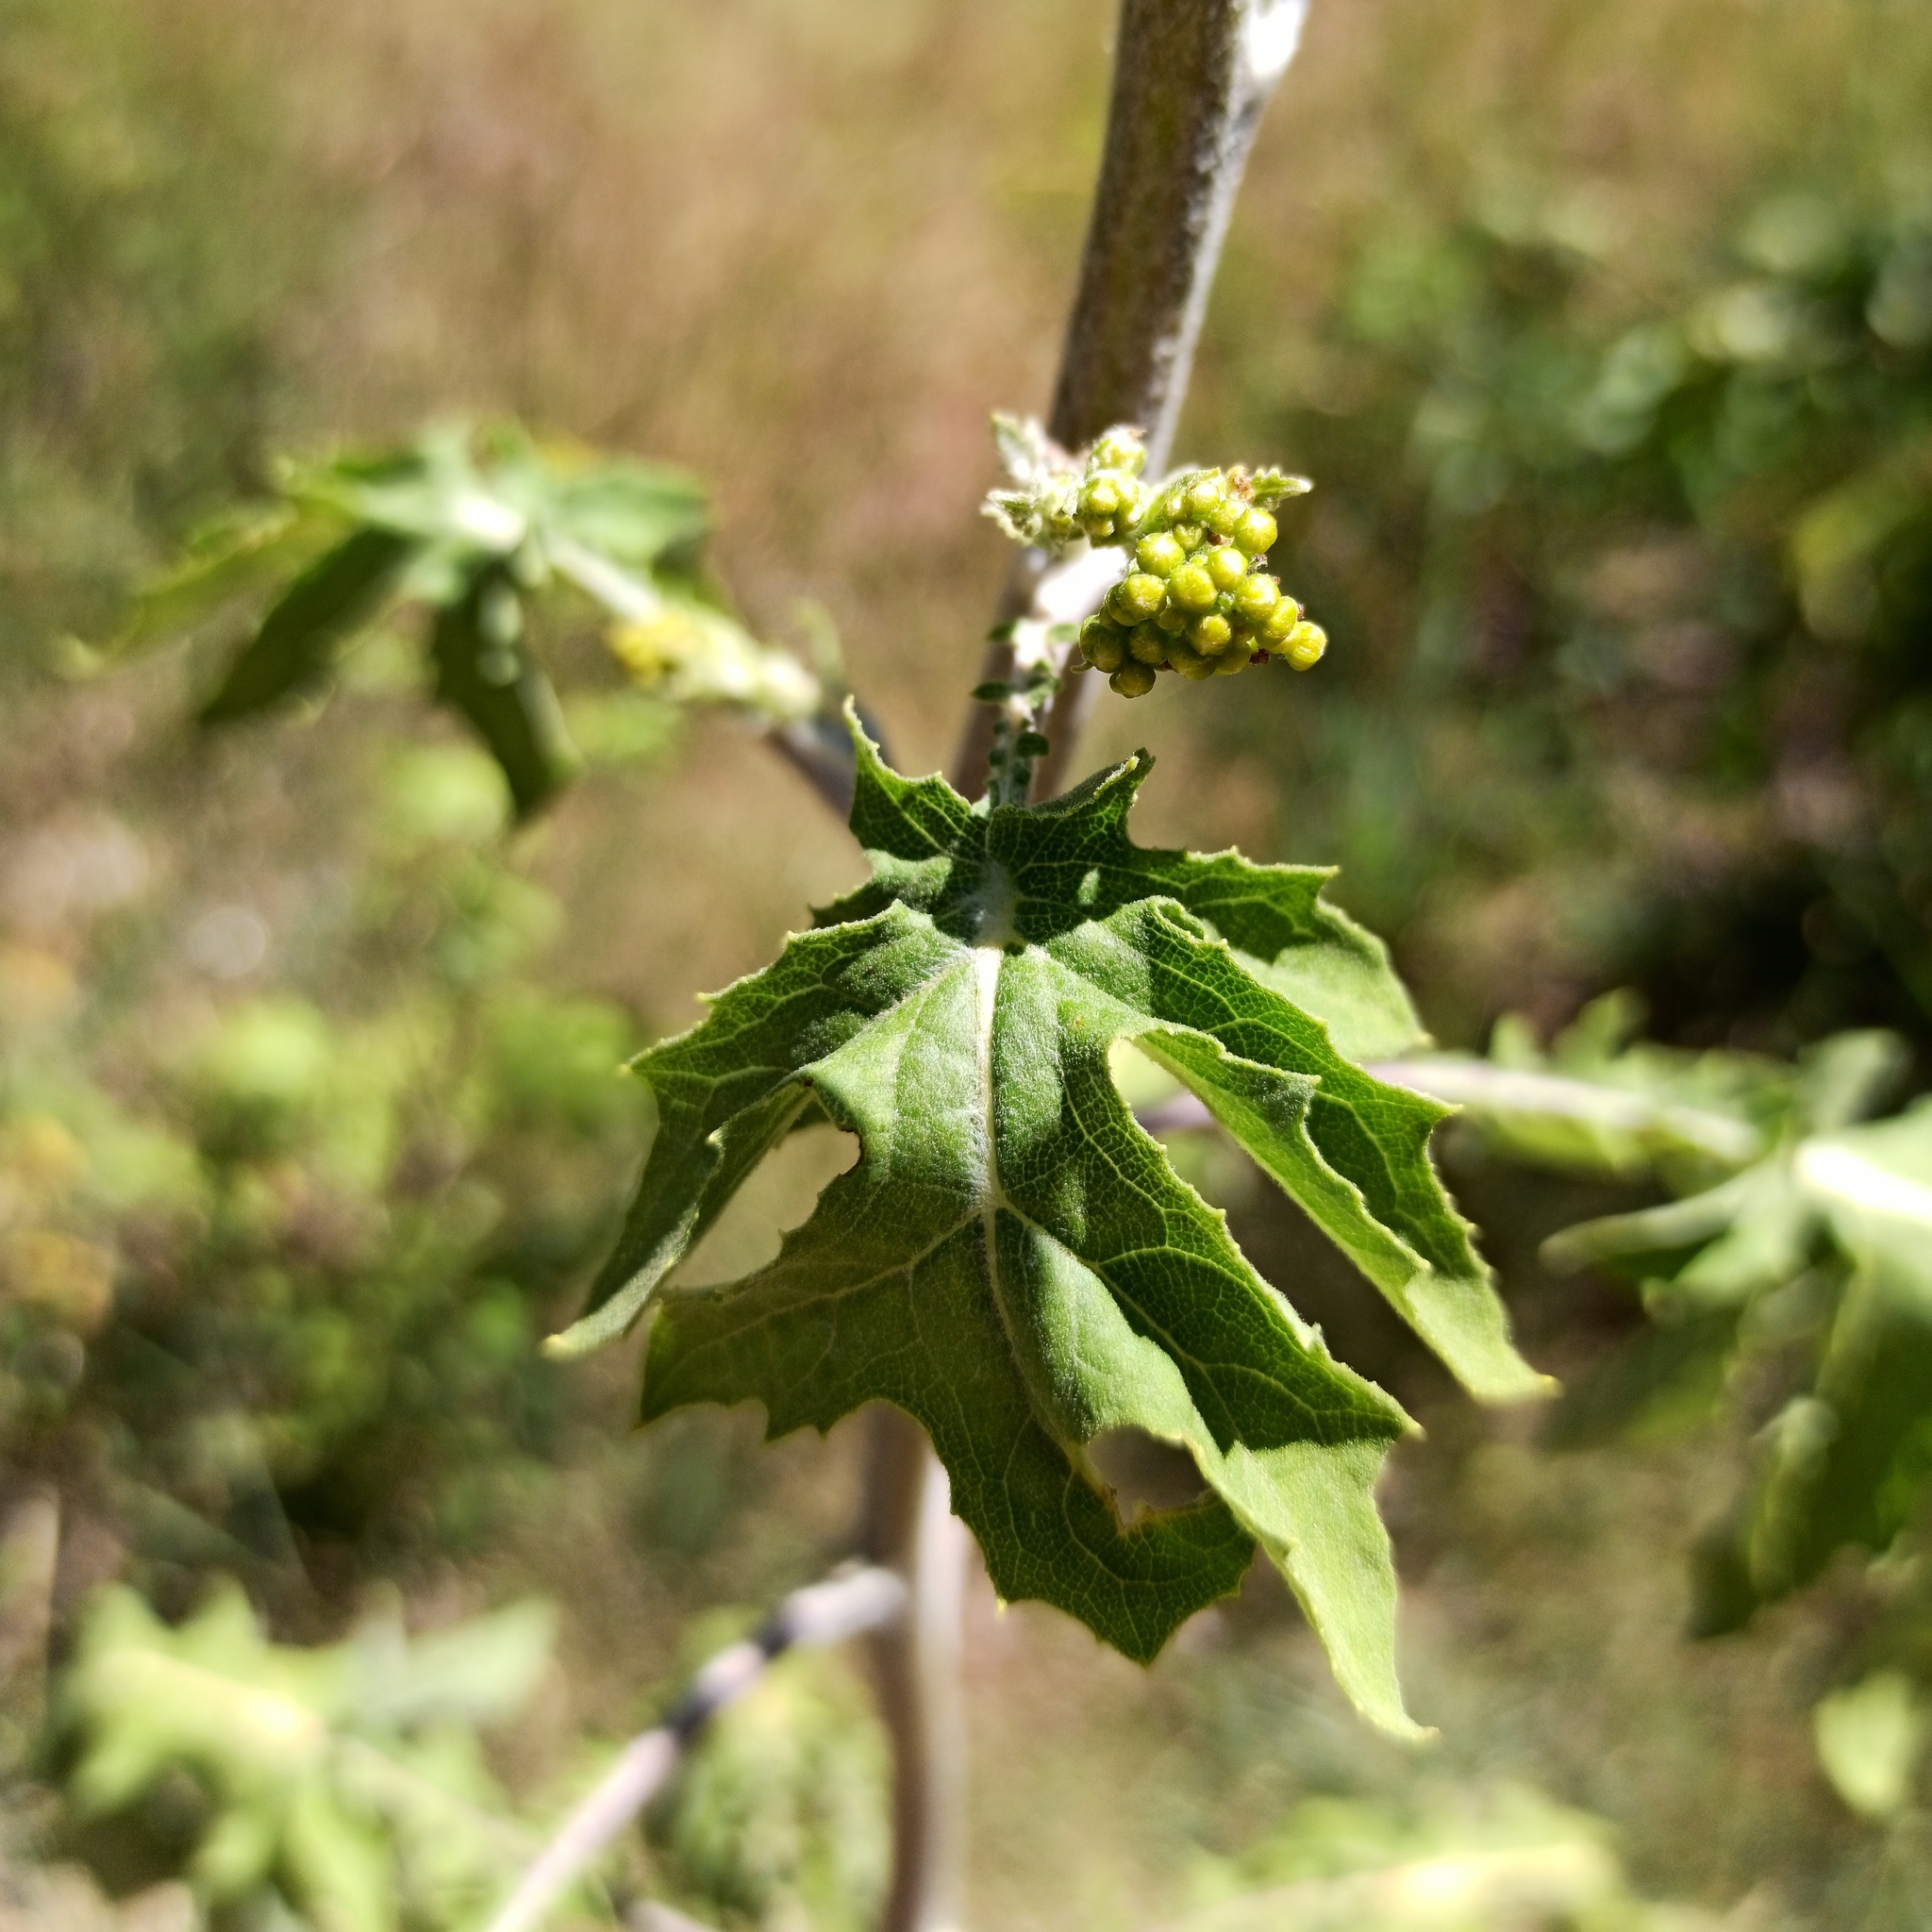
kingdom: Plantae
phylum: Tracheophyta
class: Magnoliopsida
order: Asterales
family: Asteraceae
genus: Roldana
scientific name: Roldana heracleifolia
